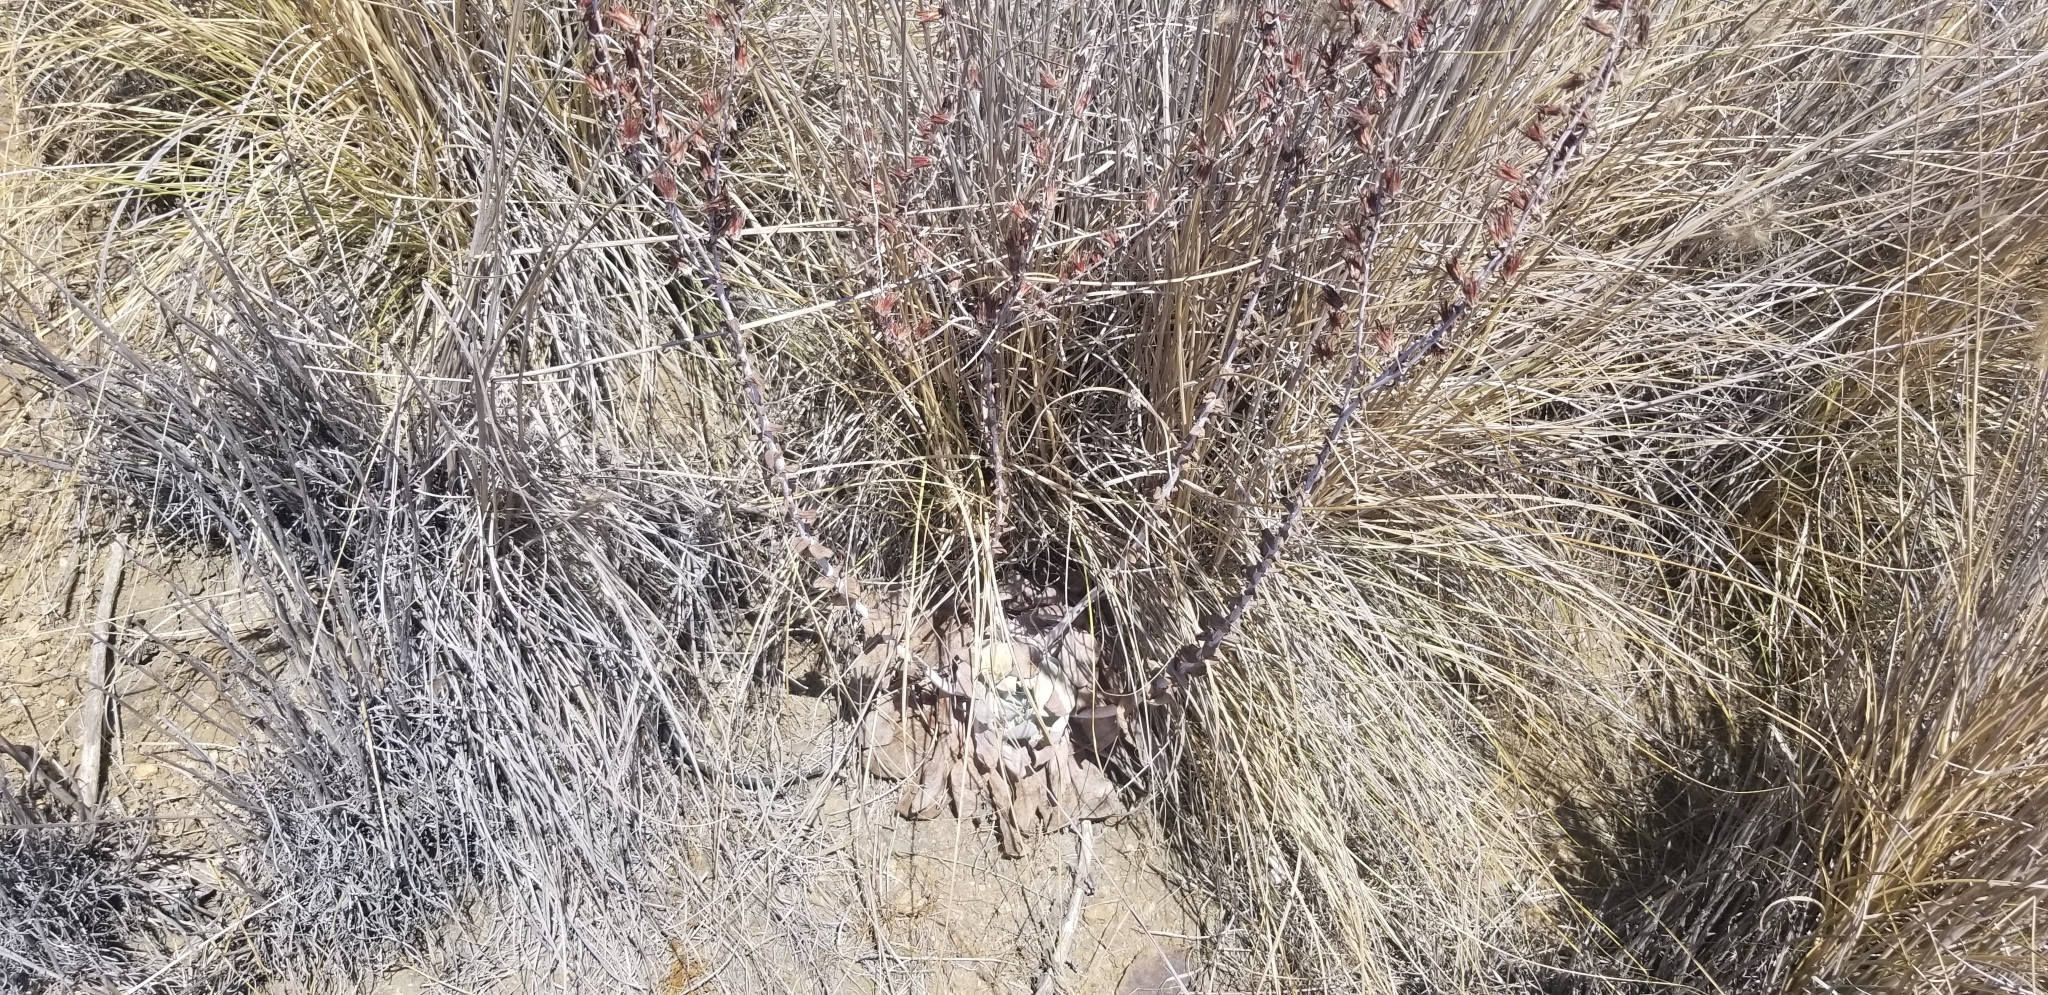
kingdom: Plantae
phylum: Tracheophyta
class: Magnoliopsida
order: Saxifragales
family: Crassulaceae
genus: Dudleya
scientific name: Dudleya pulverulenta
